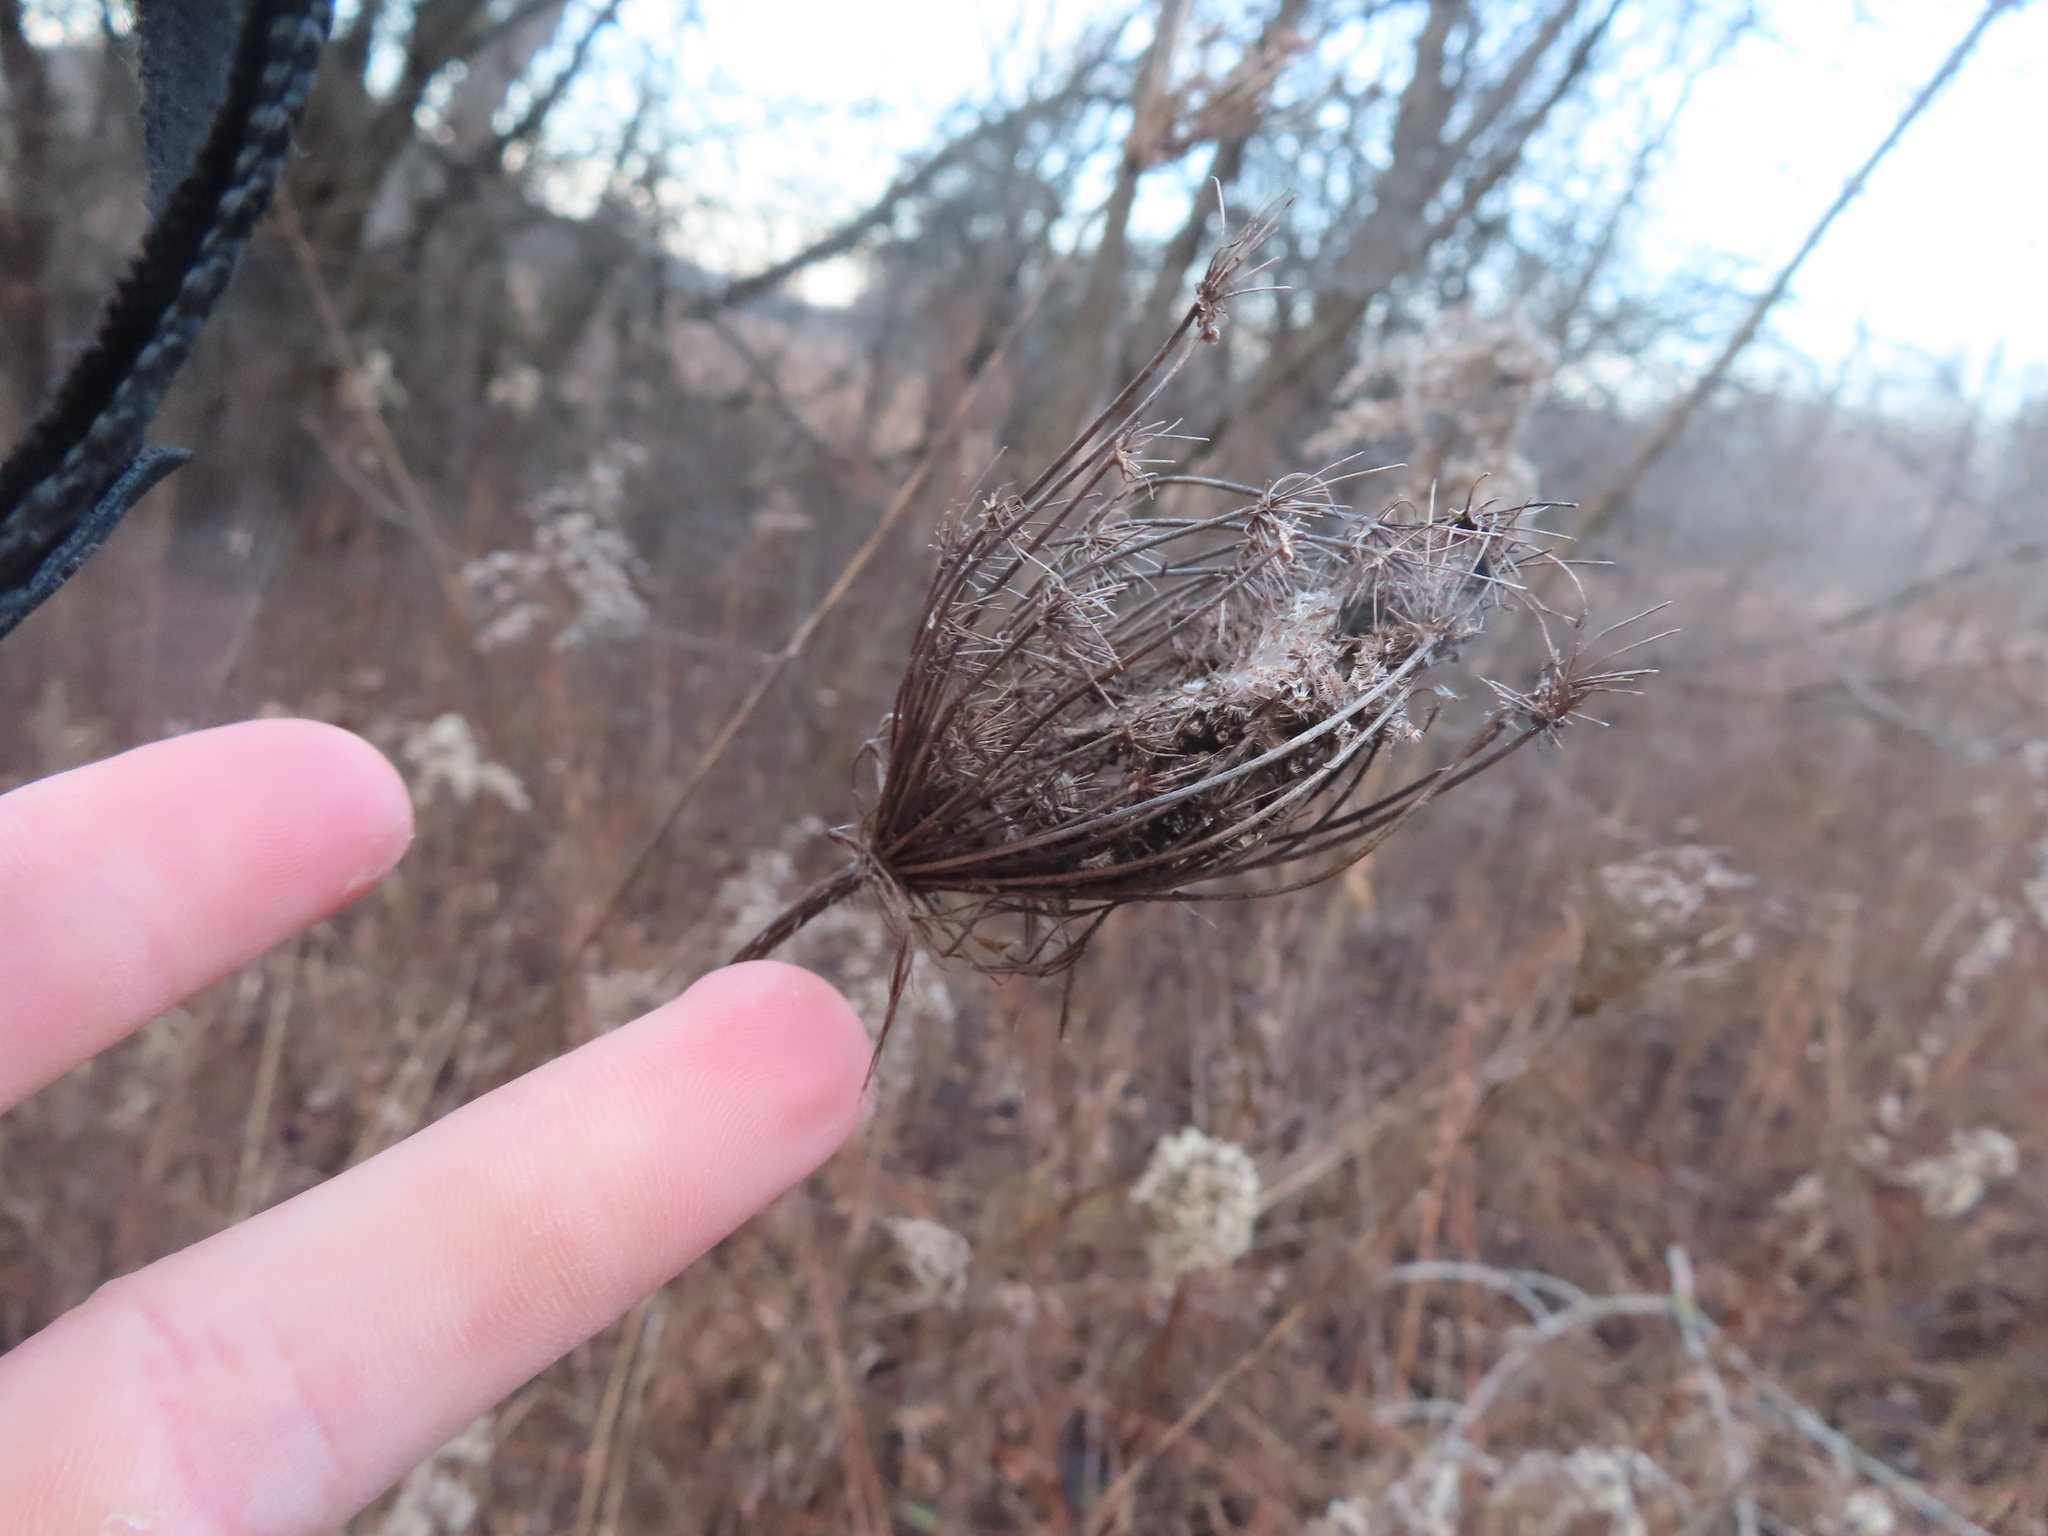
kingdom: Plantae
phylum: Tracheophyta
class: Magnoliopsida
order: Apiales
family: Apiaceae
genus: Daucus
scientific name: Daucus carota
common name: Wild carrot
